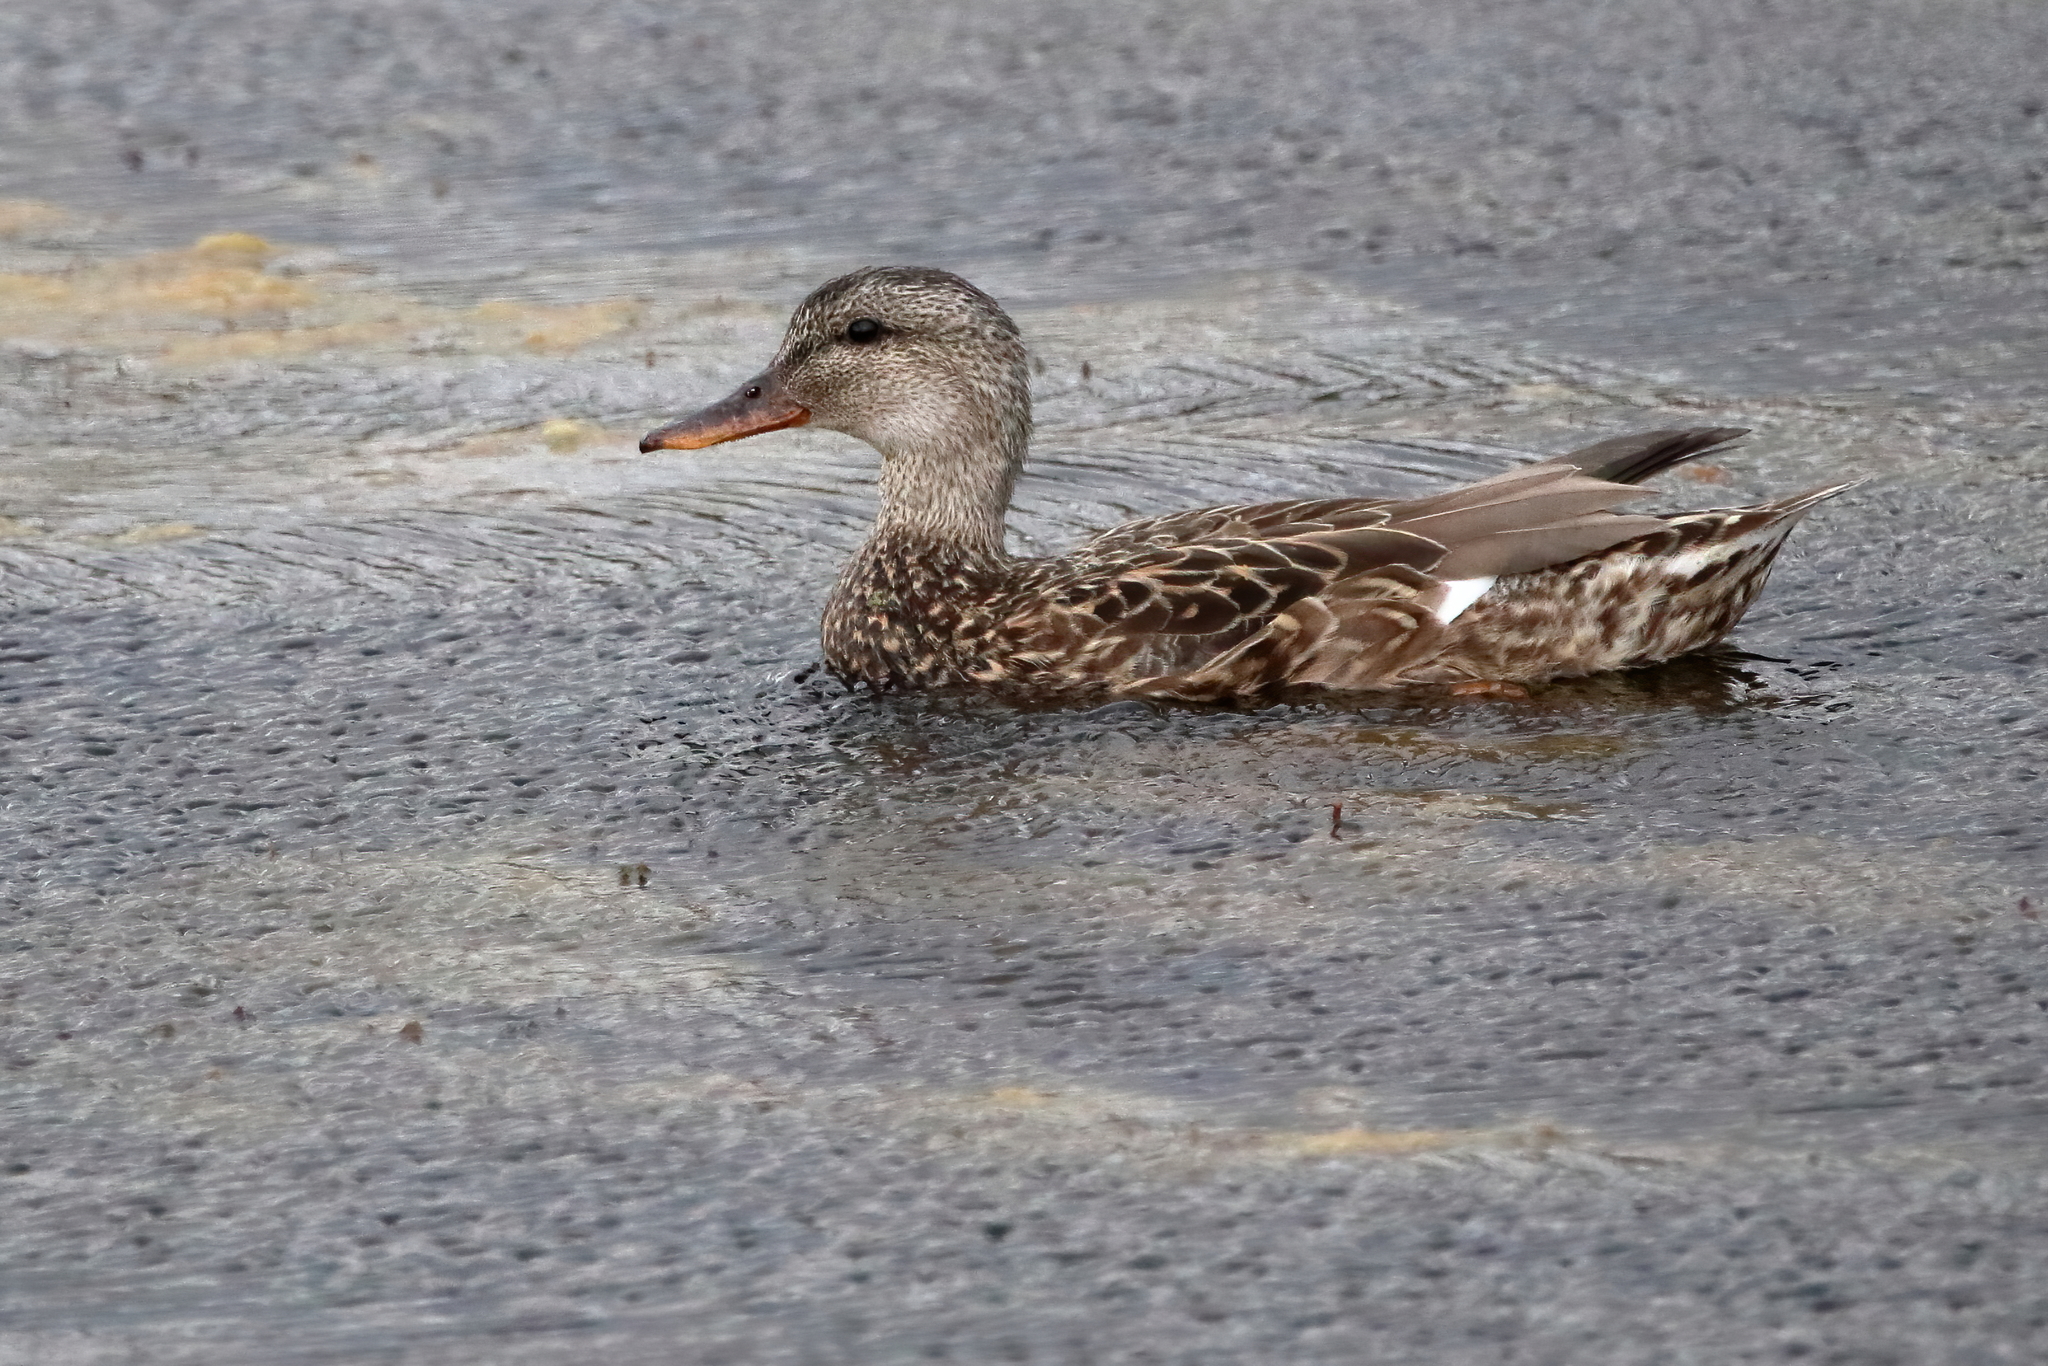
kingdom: Animalia
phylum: Chordata
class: Aves
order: Anseriformes
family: Anatidae
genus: Mareca
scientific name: Mareca strepera
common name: Gadwall
